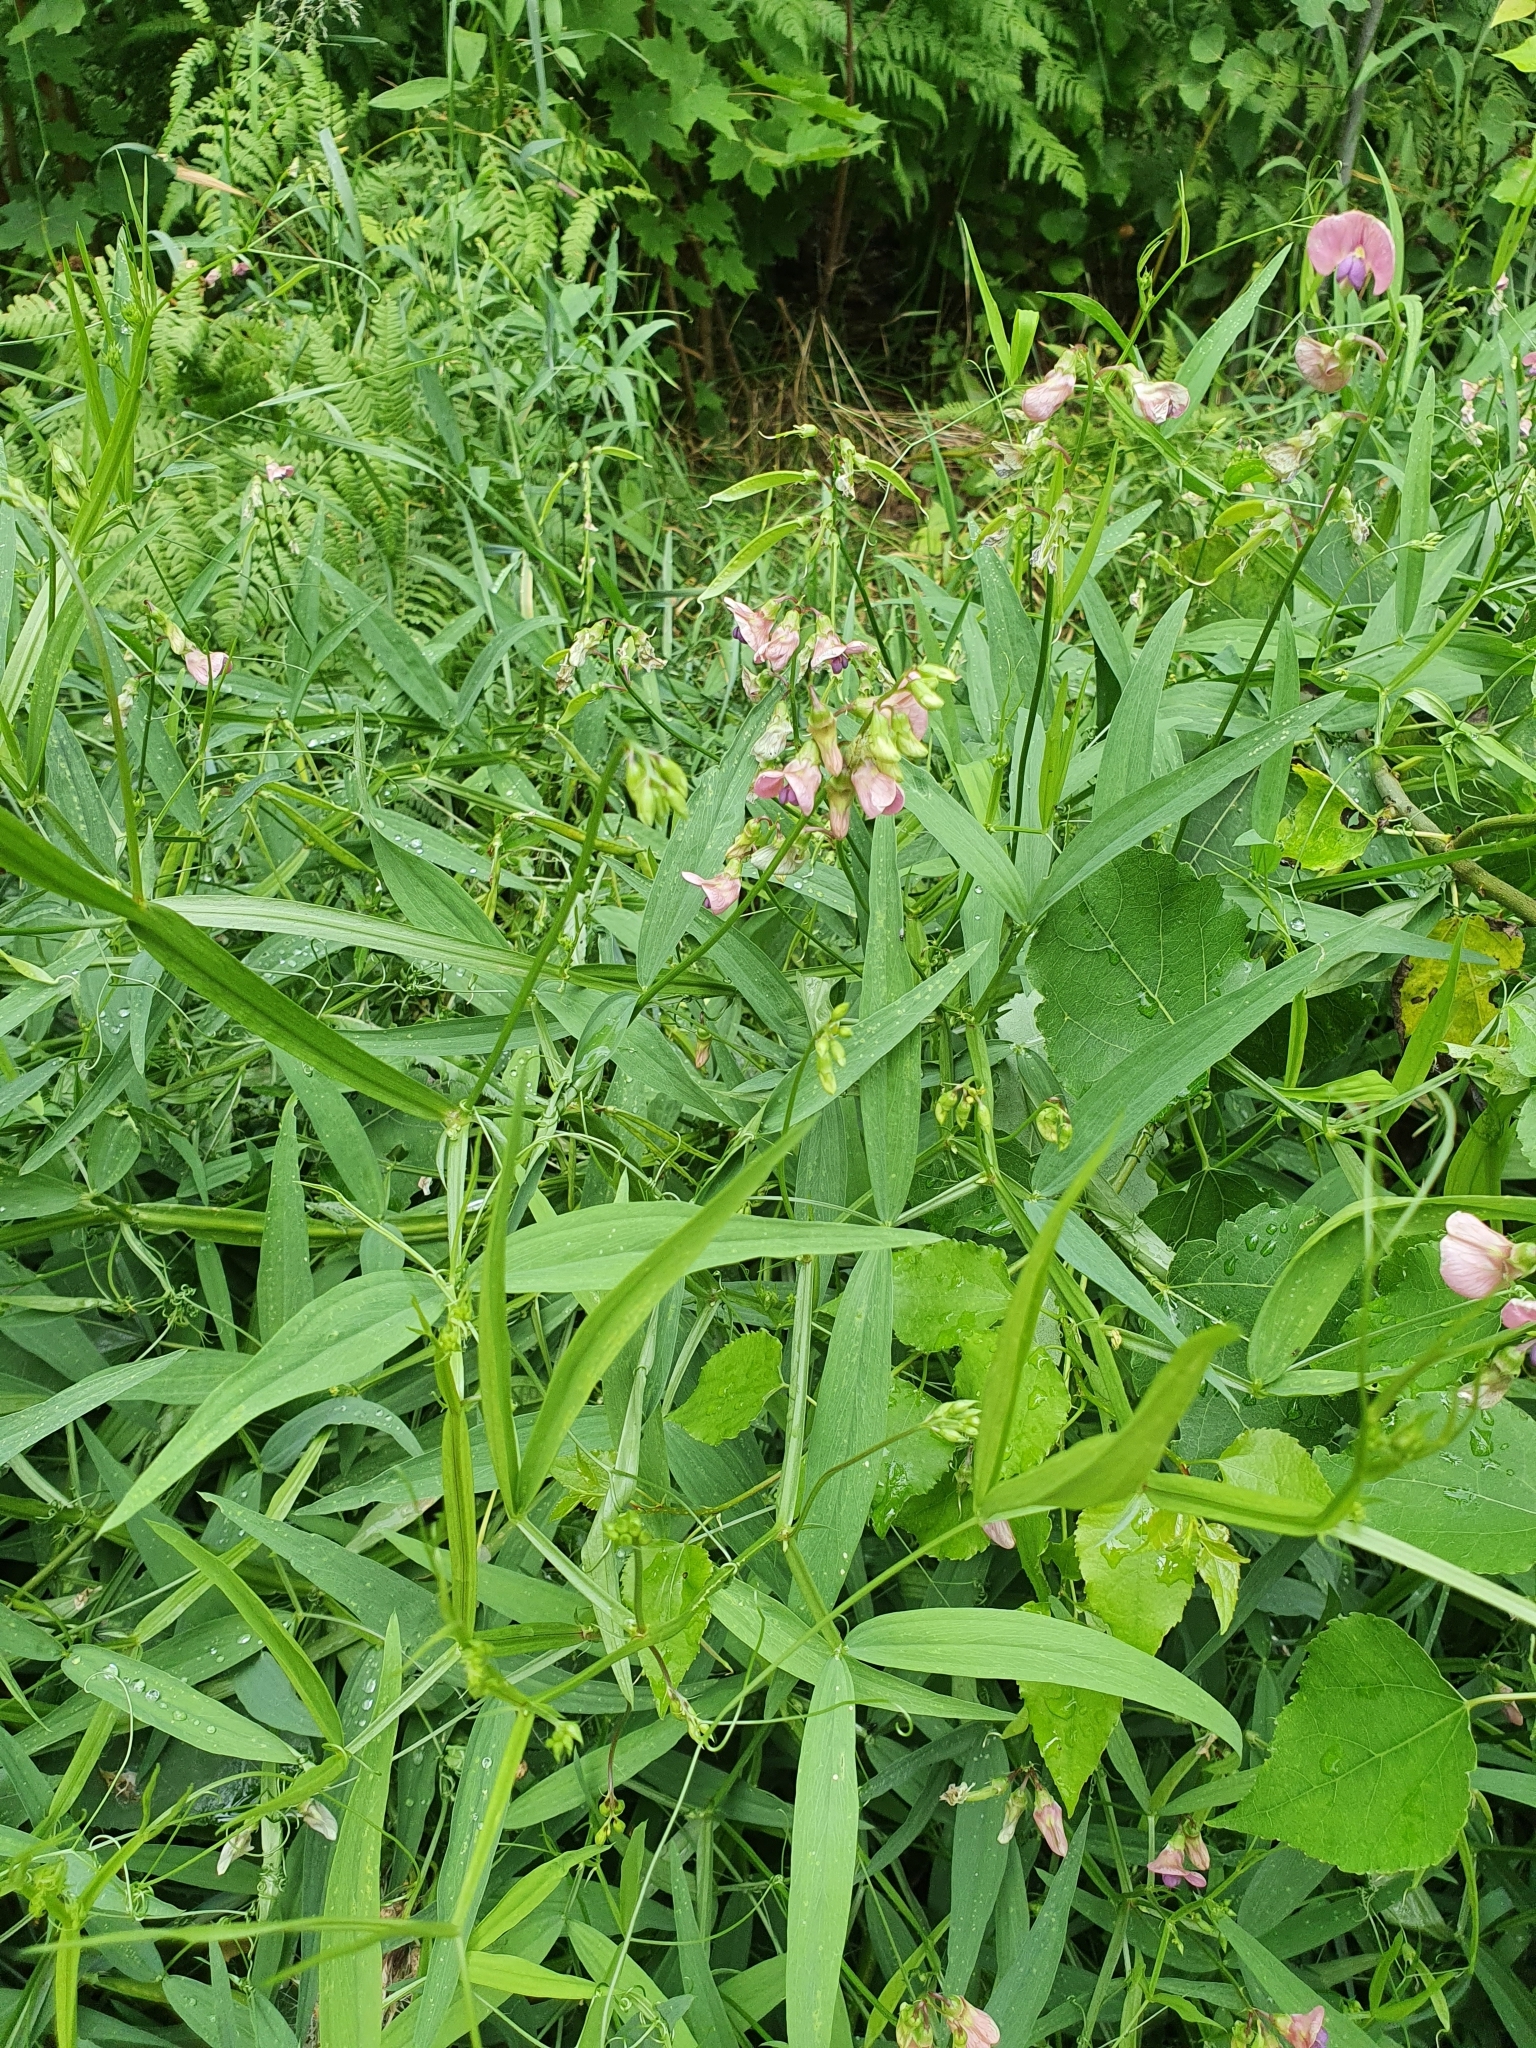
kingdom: Plantae
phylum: Tracheophyta
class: Magnoliopsida
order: Fabales
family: Fabaceae
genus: Lathyrus
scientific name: Lathyrus sylvestris
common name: Flat pea
